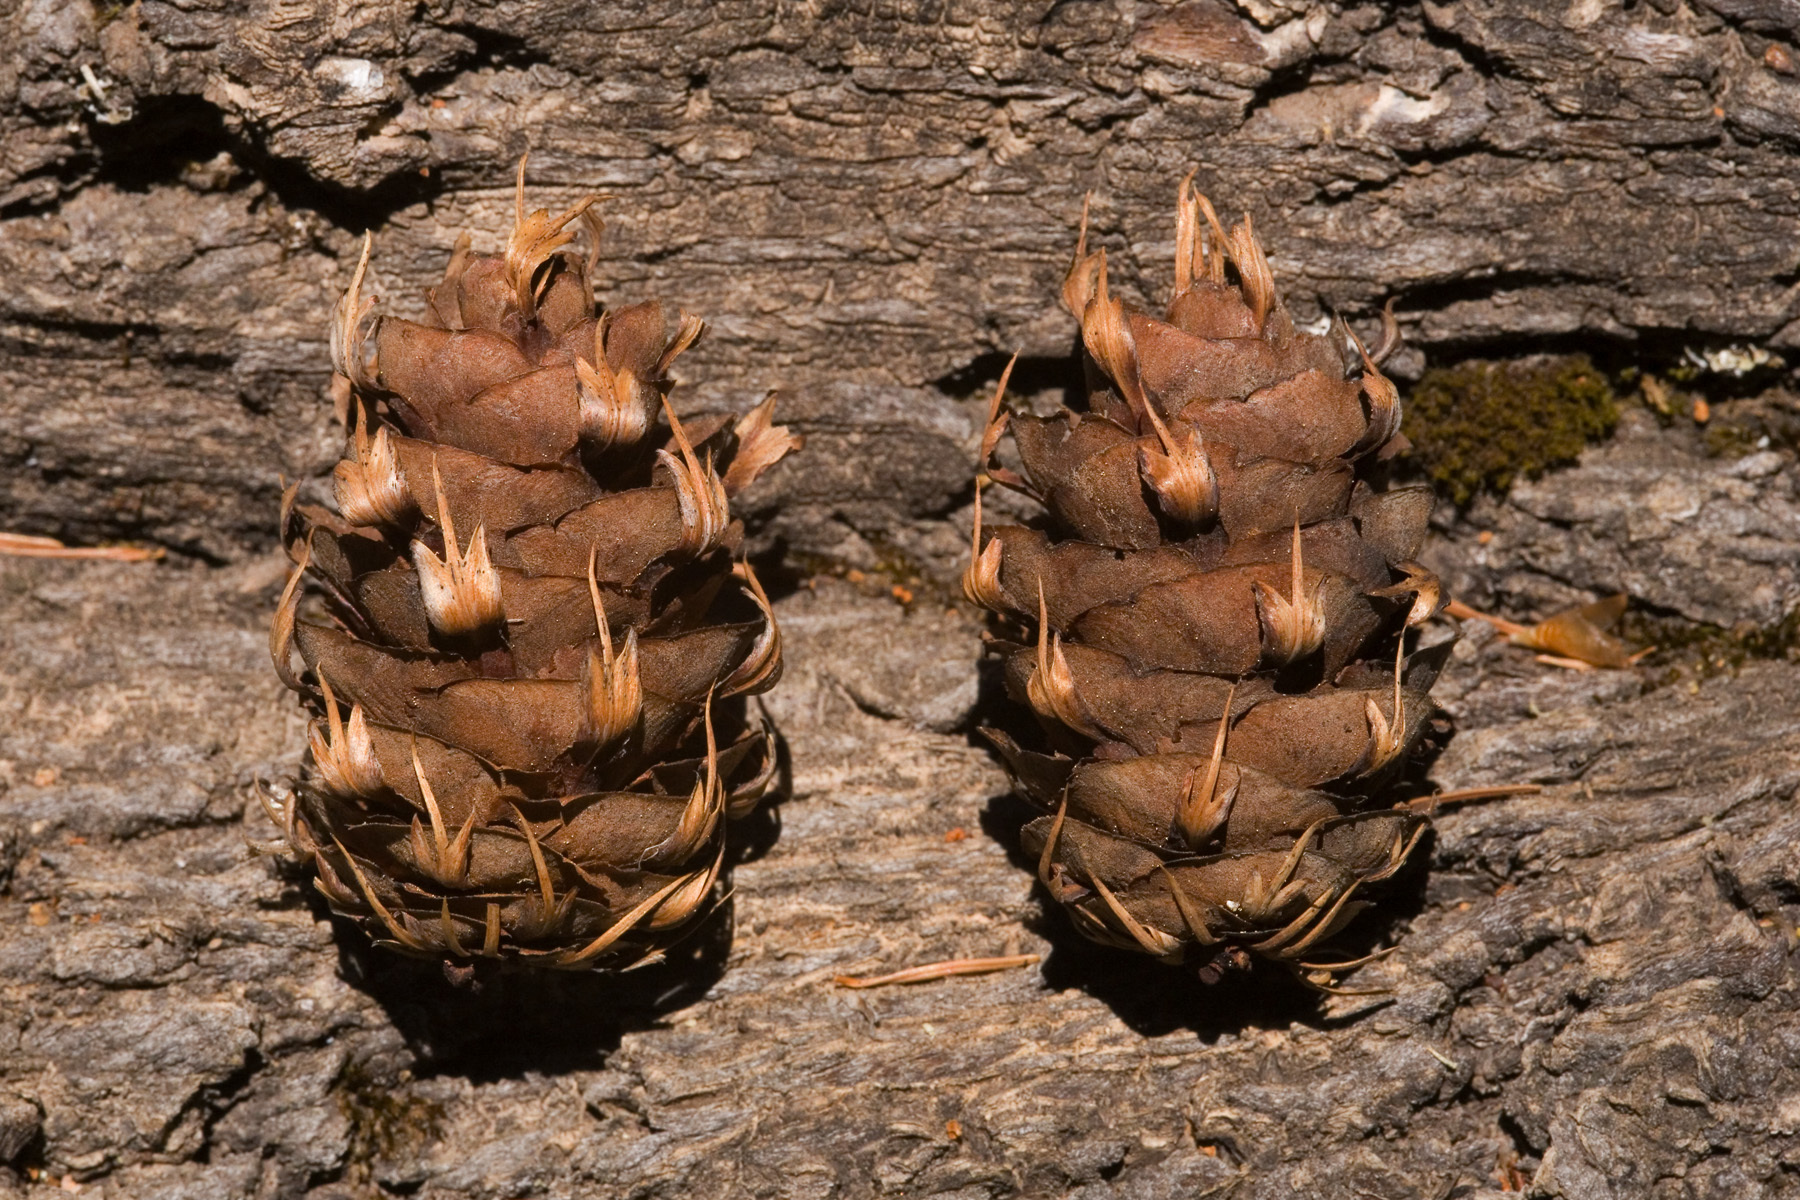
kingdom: Plantae
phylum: Tracheophyta
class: Pinopsida
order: Pinales
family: Pinaceae
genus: Pseudotsuga
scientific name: Pseudotsuga menziesii
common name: Douglas fir
